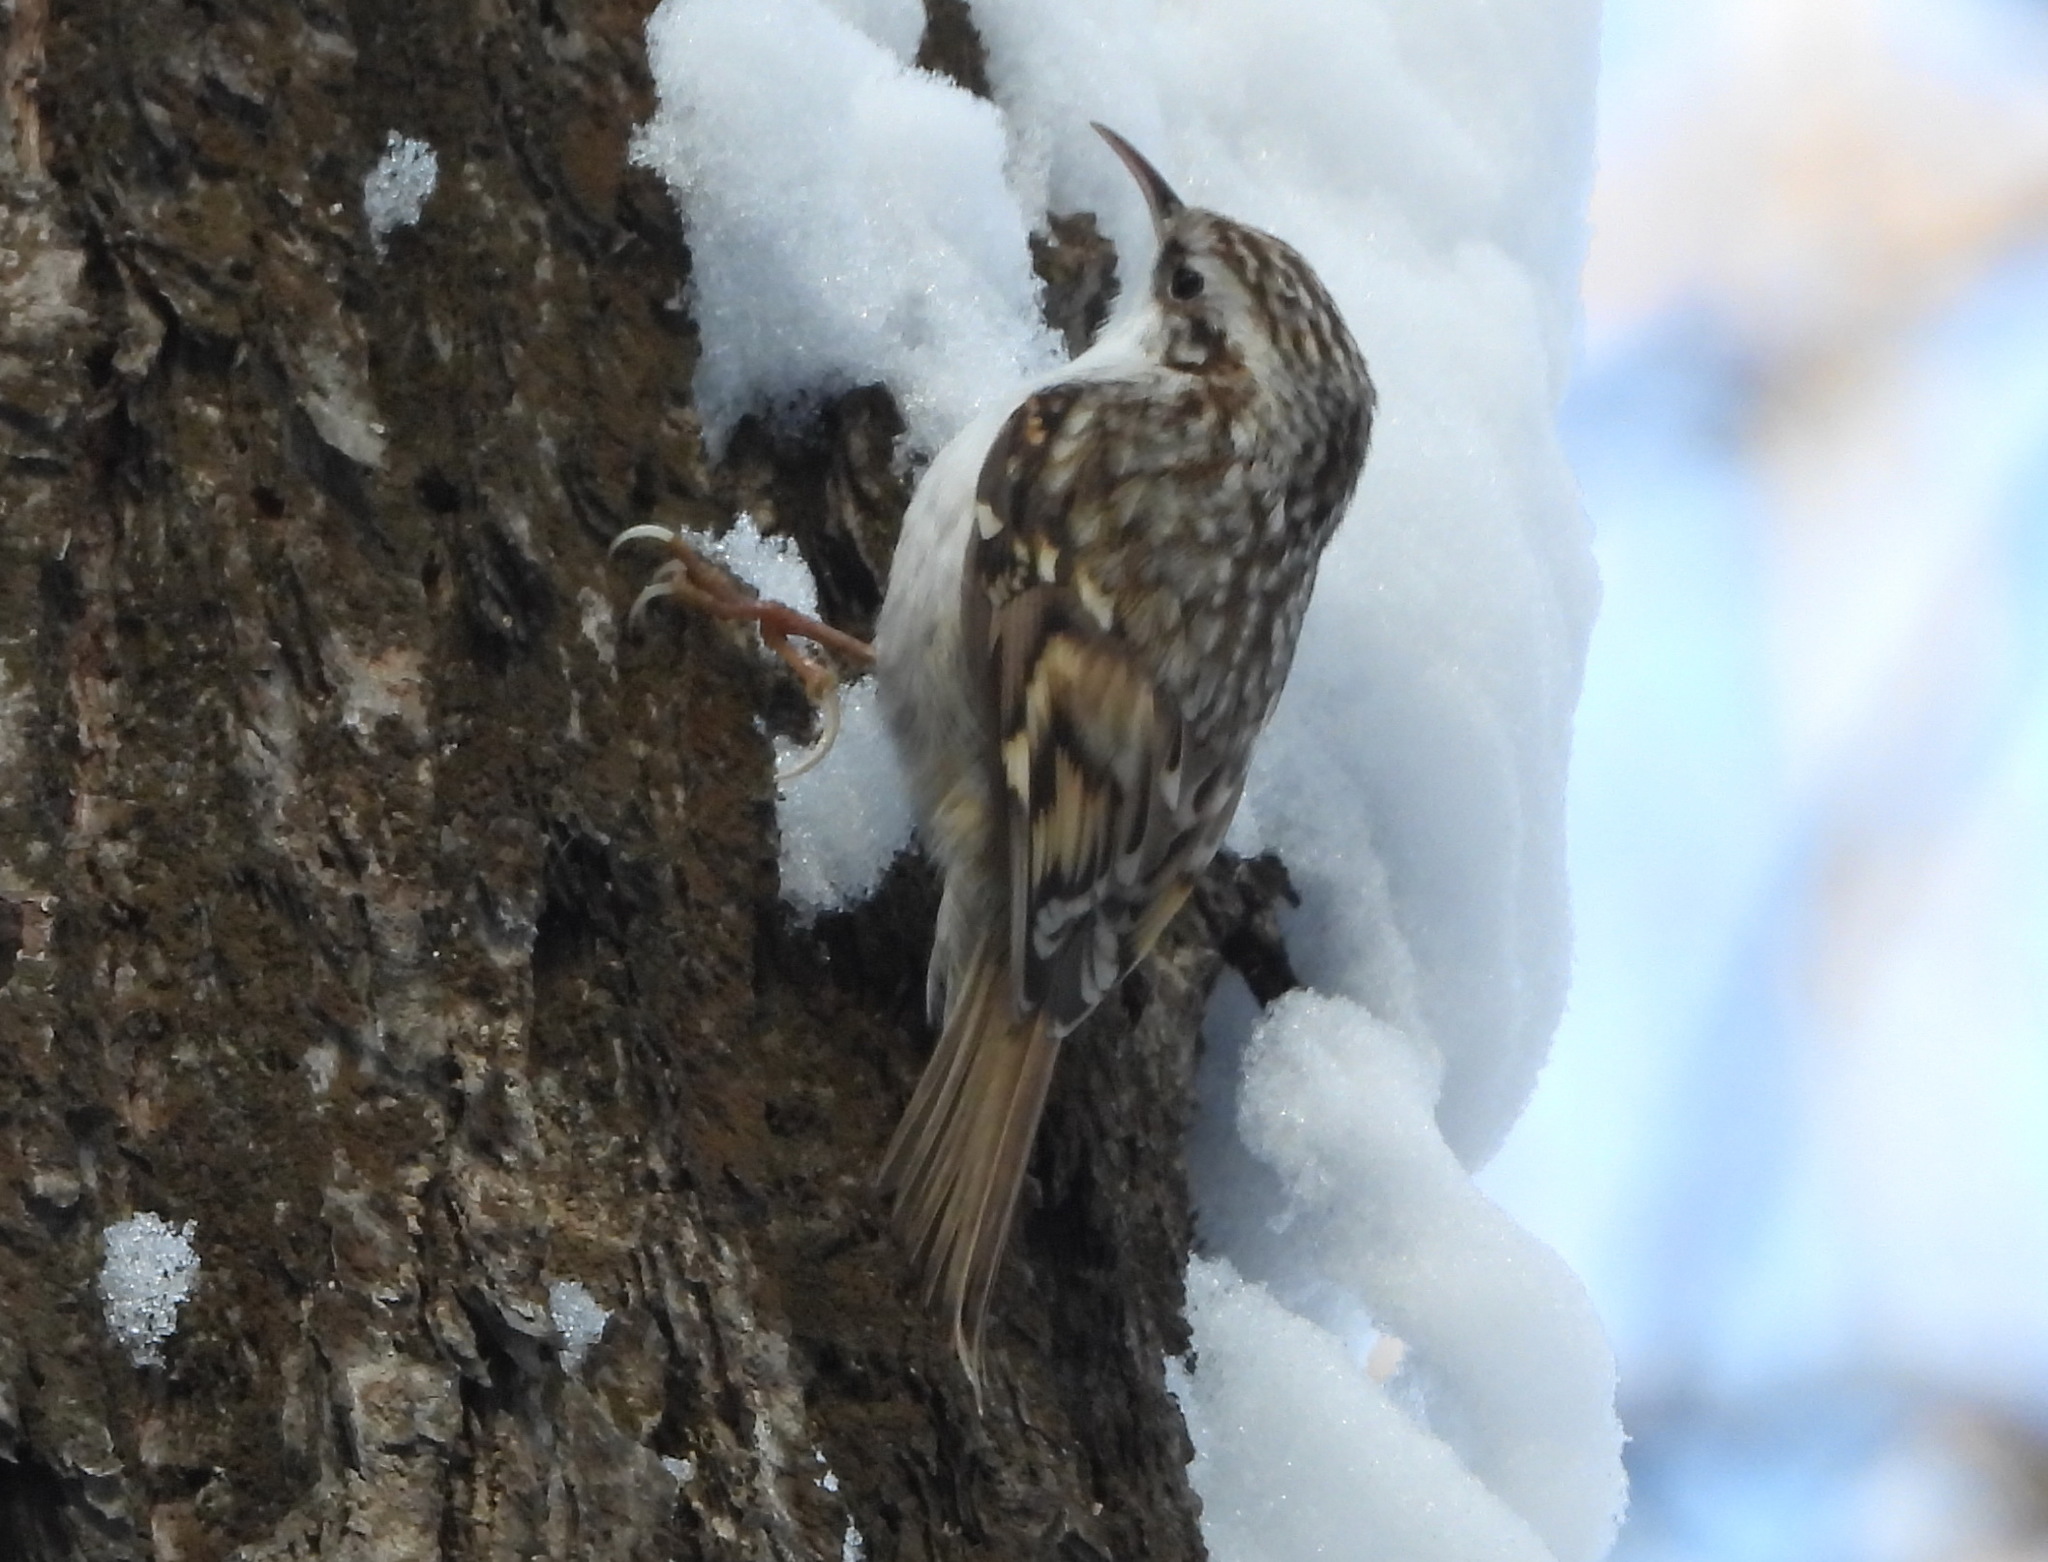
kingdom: Animalia
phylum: Chordata
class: Aves
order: Passeriformes
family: Certhiidae
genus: Certhia
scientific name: Certhia familiaris
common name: Eurasian treecreeper
